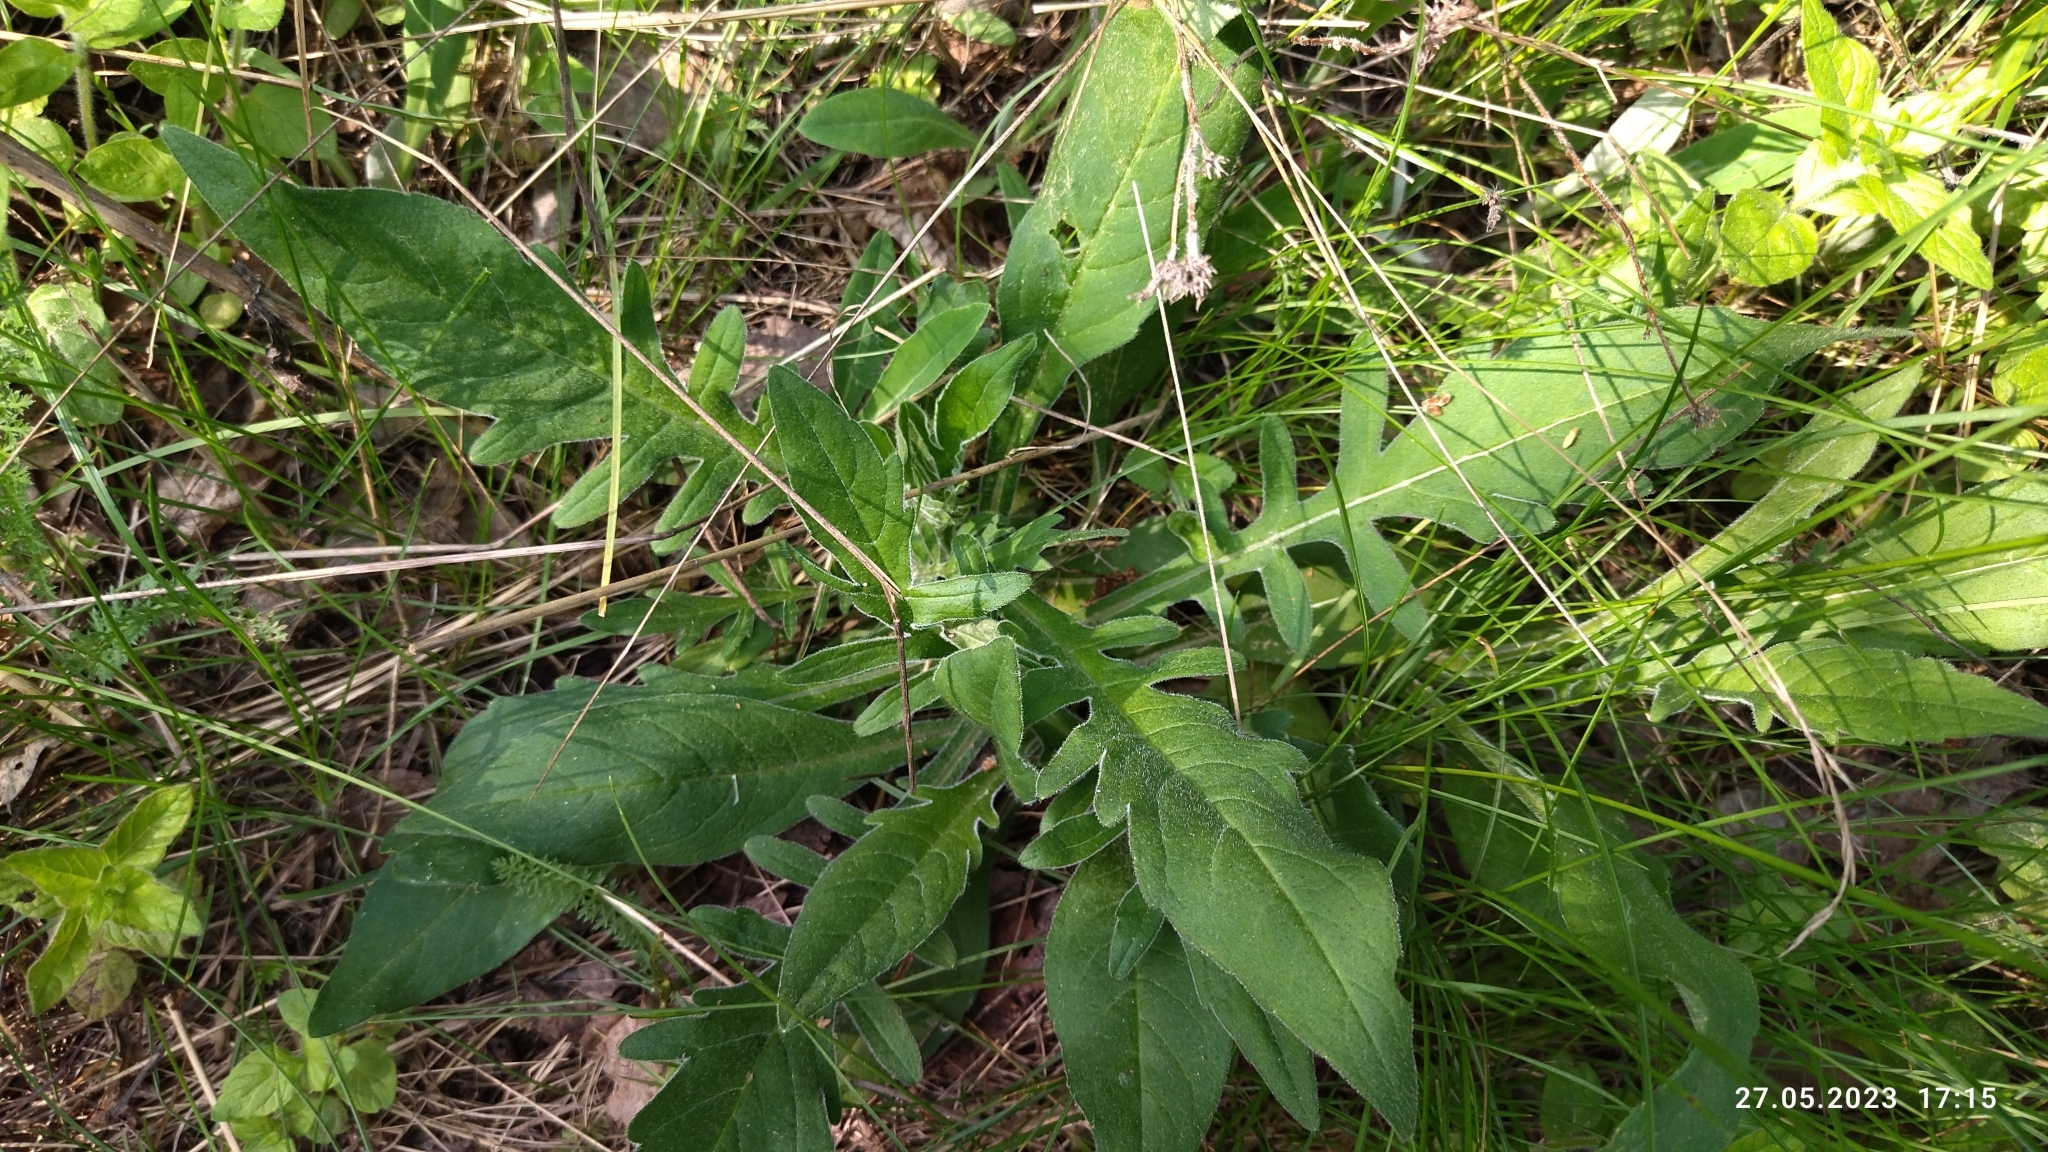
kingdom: Plantae
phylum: Tracheophyta
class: Magnoliopsida
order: Dipsacales
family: Caprifoliaceae
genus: Knautia
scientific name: Knautia arvensis
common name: Field scabiosa
